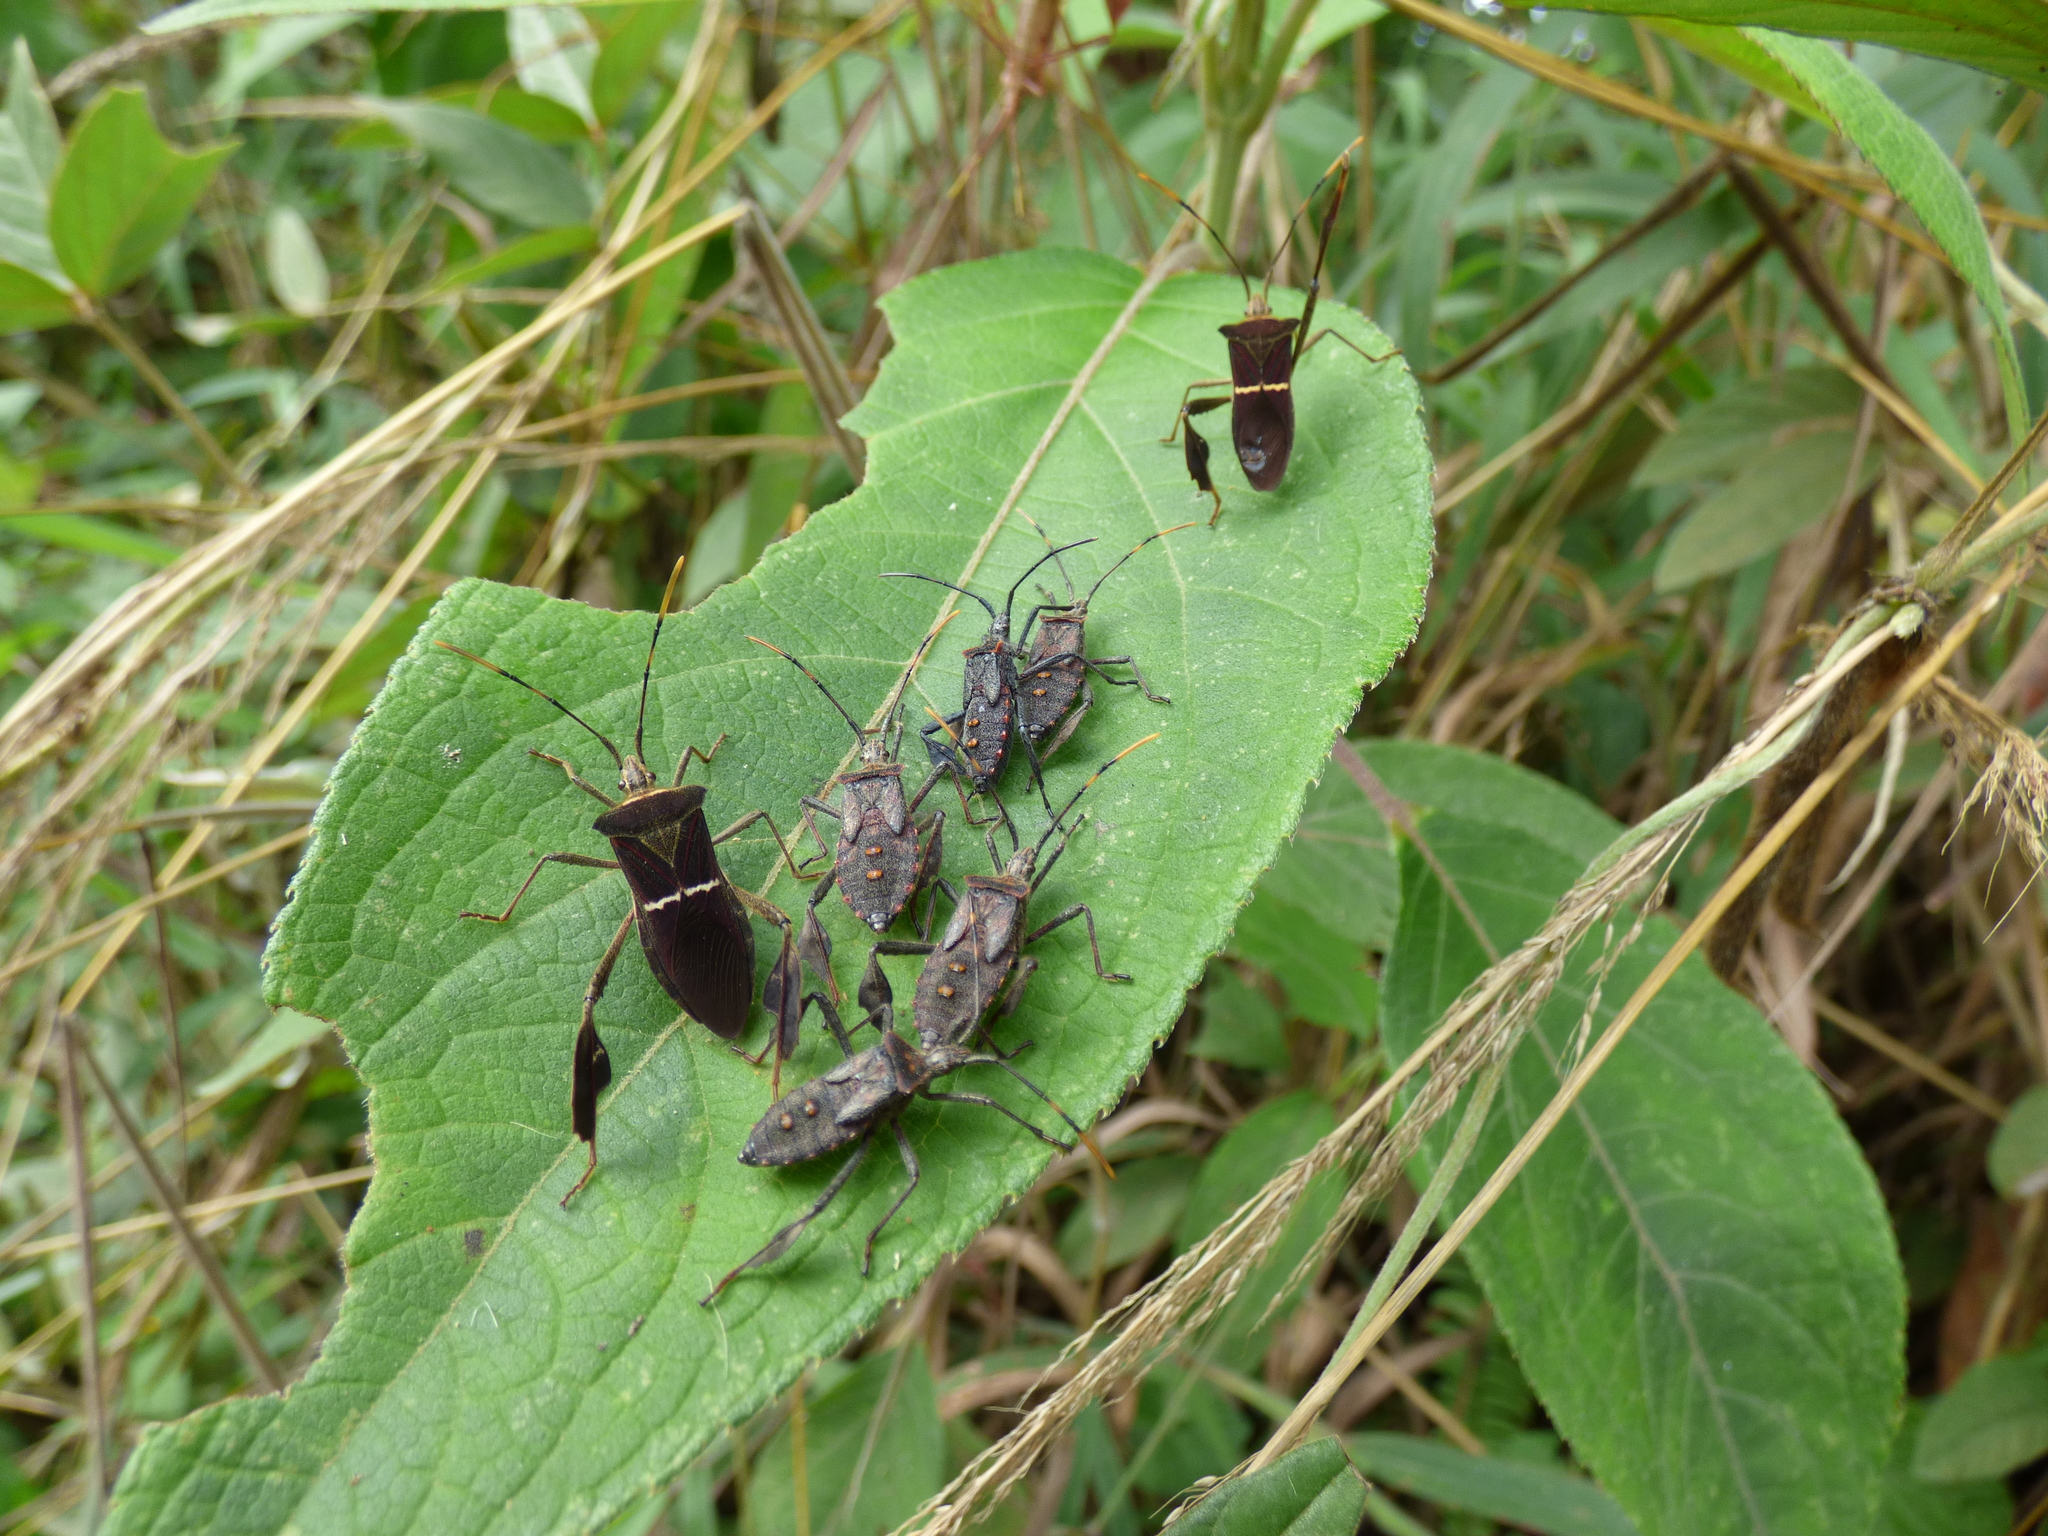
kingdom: Animalia
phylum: Arthropoda
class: Insecta
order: Hemiptera
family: Coreidae
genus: Leptoglossus
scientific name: Leptoglossus macrophyllus
